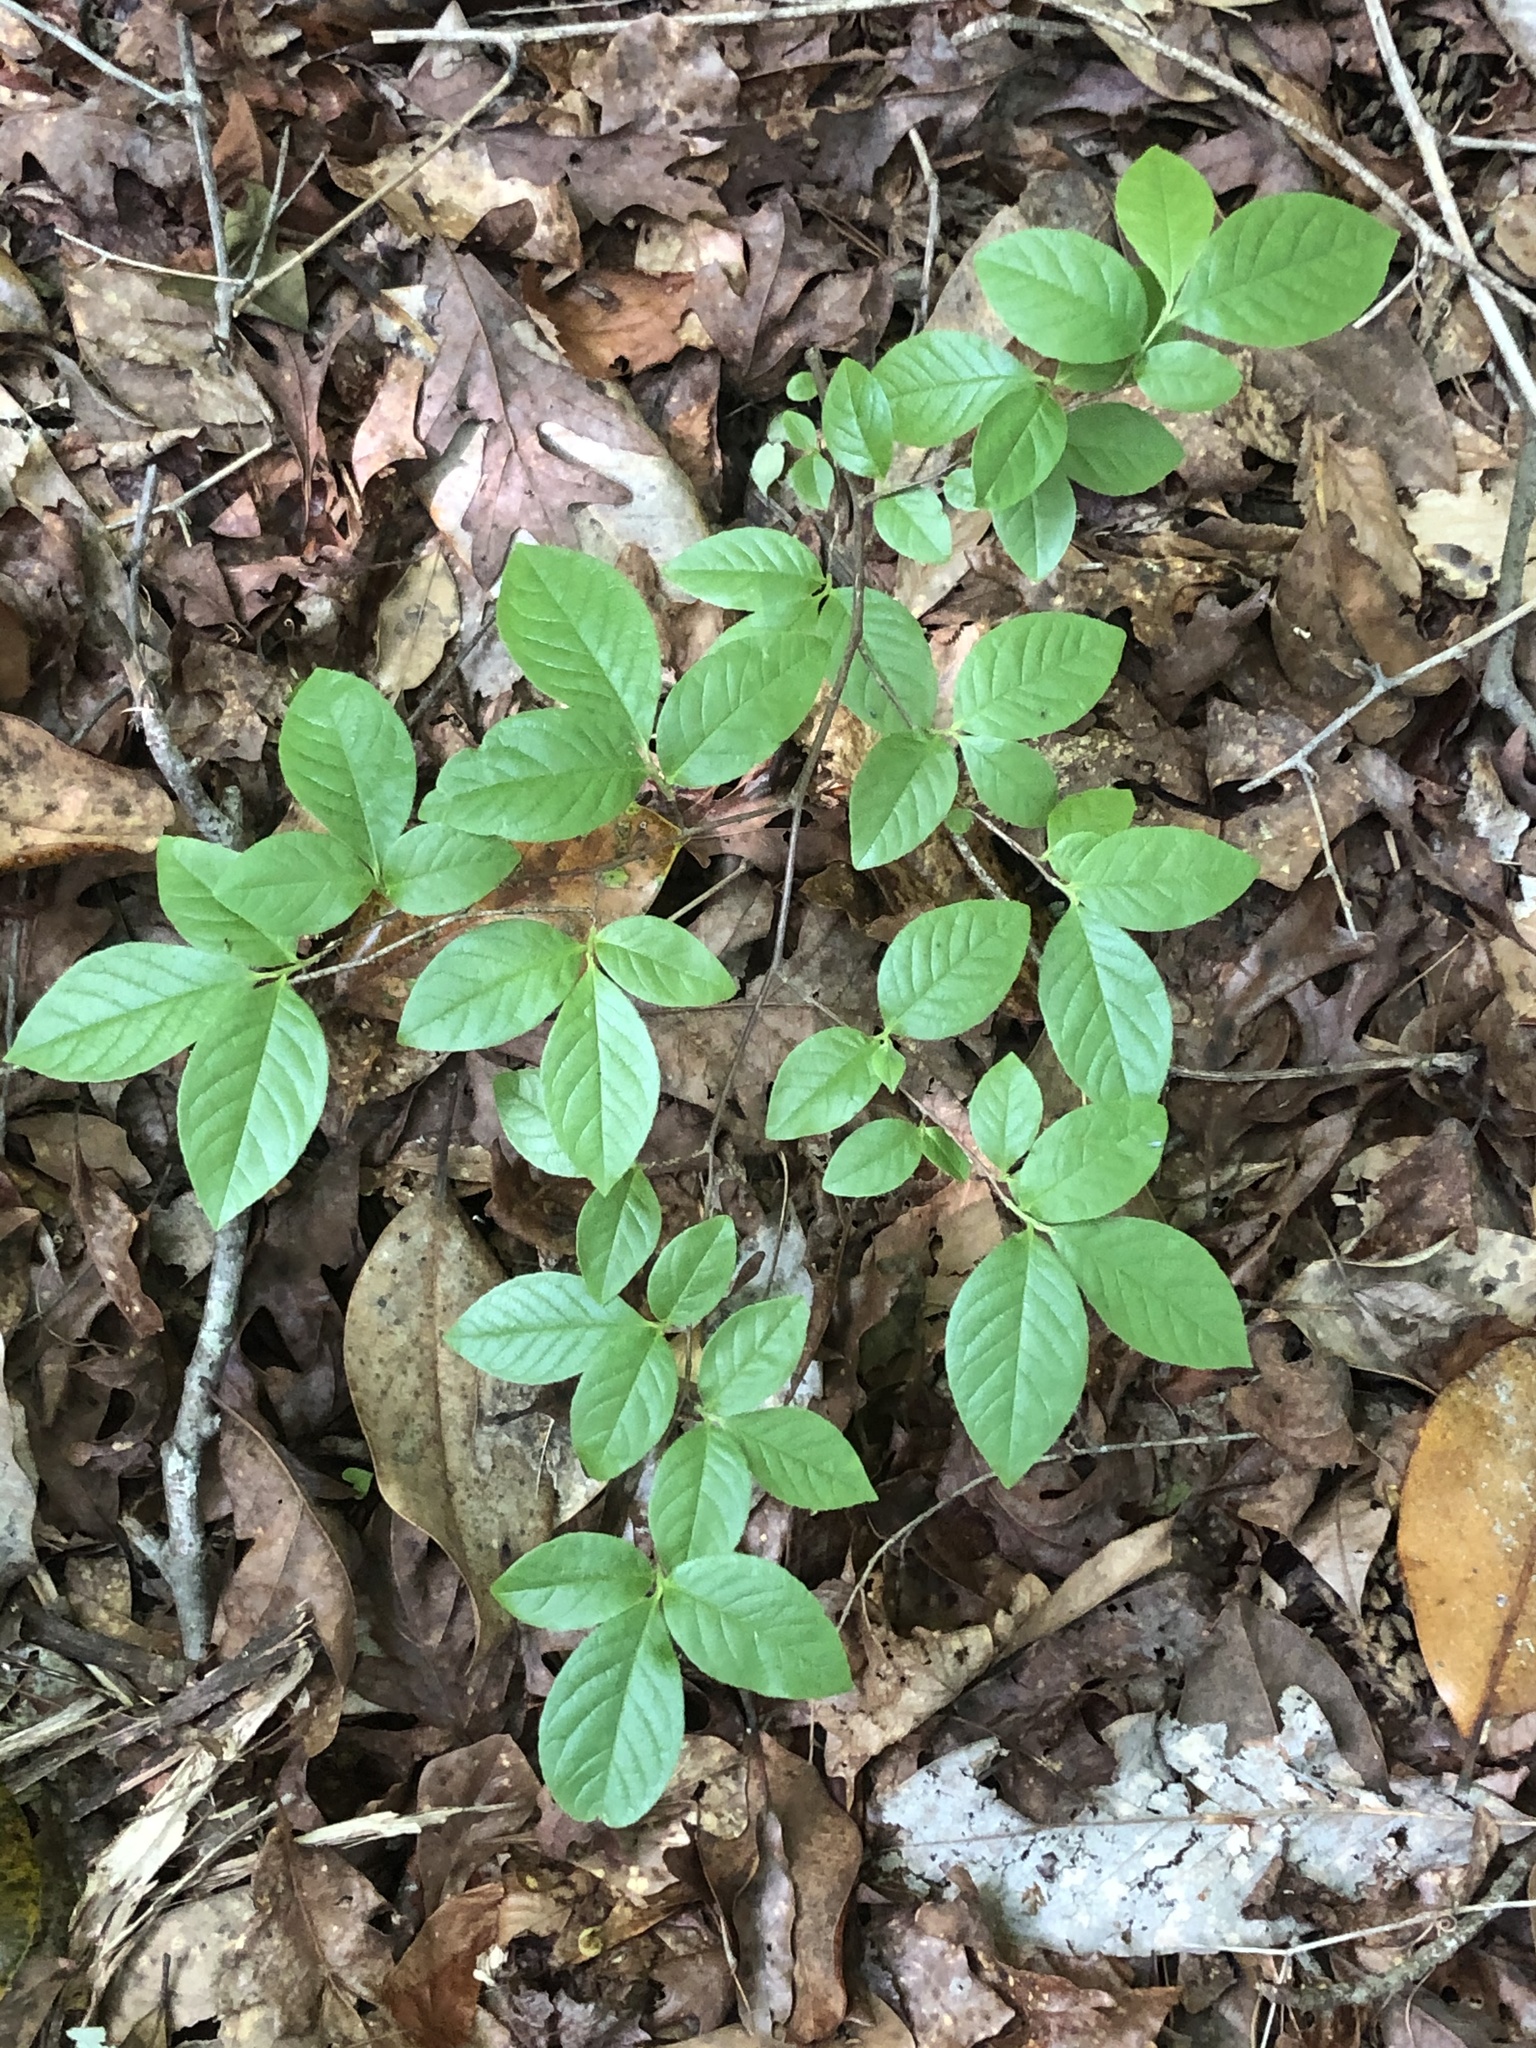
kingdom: Plantae
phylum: Tracheophyta
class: Magnoliopsida
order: Ericales
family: Theaceae
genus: Stewartia
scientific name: Stewartia malacodendron
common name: Virginia stewartia
